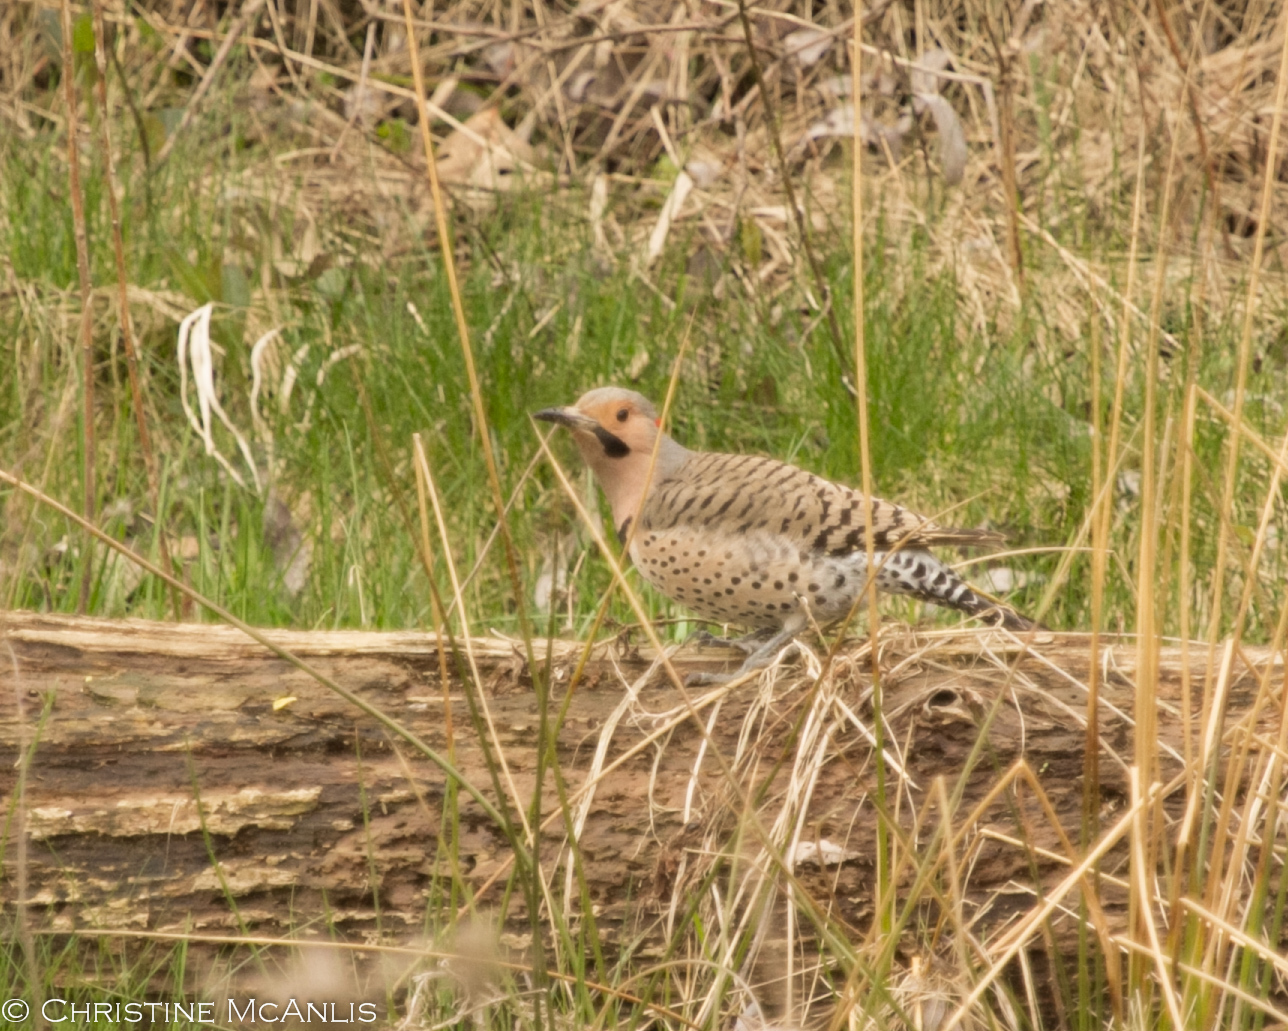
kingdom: Animalia
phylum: Chordata
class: Aves
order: Piciformes
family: Picidae
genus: Colaptes
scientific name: Colaptes auratus
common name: Northern flicker
